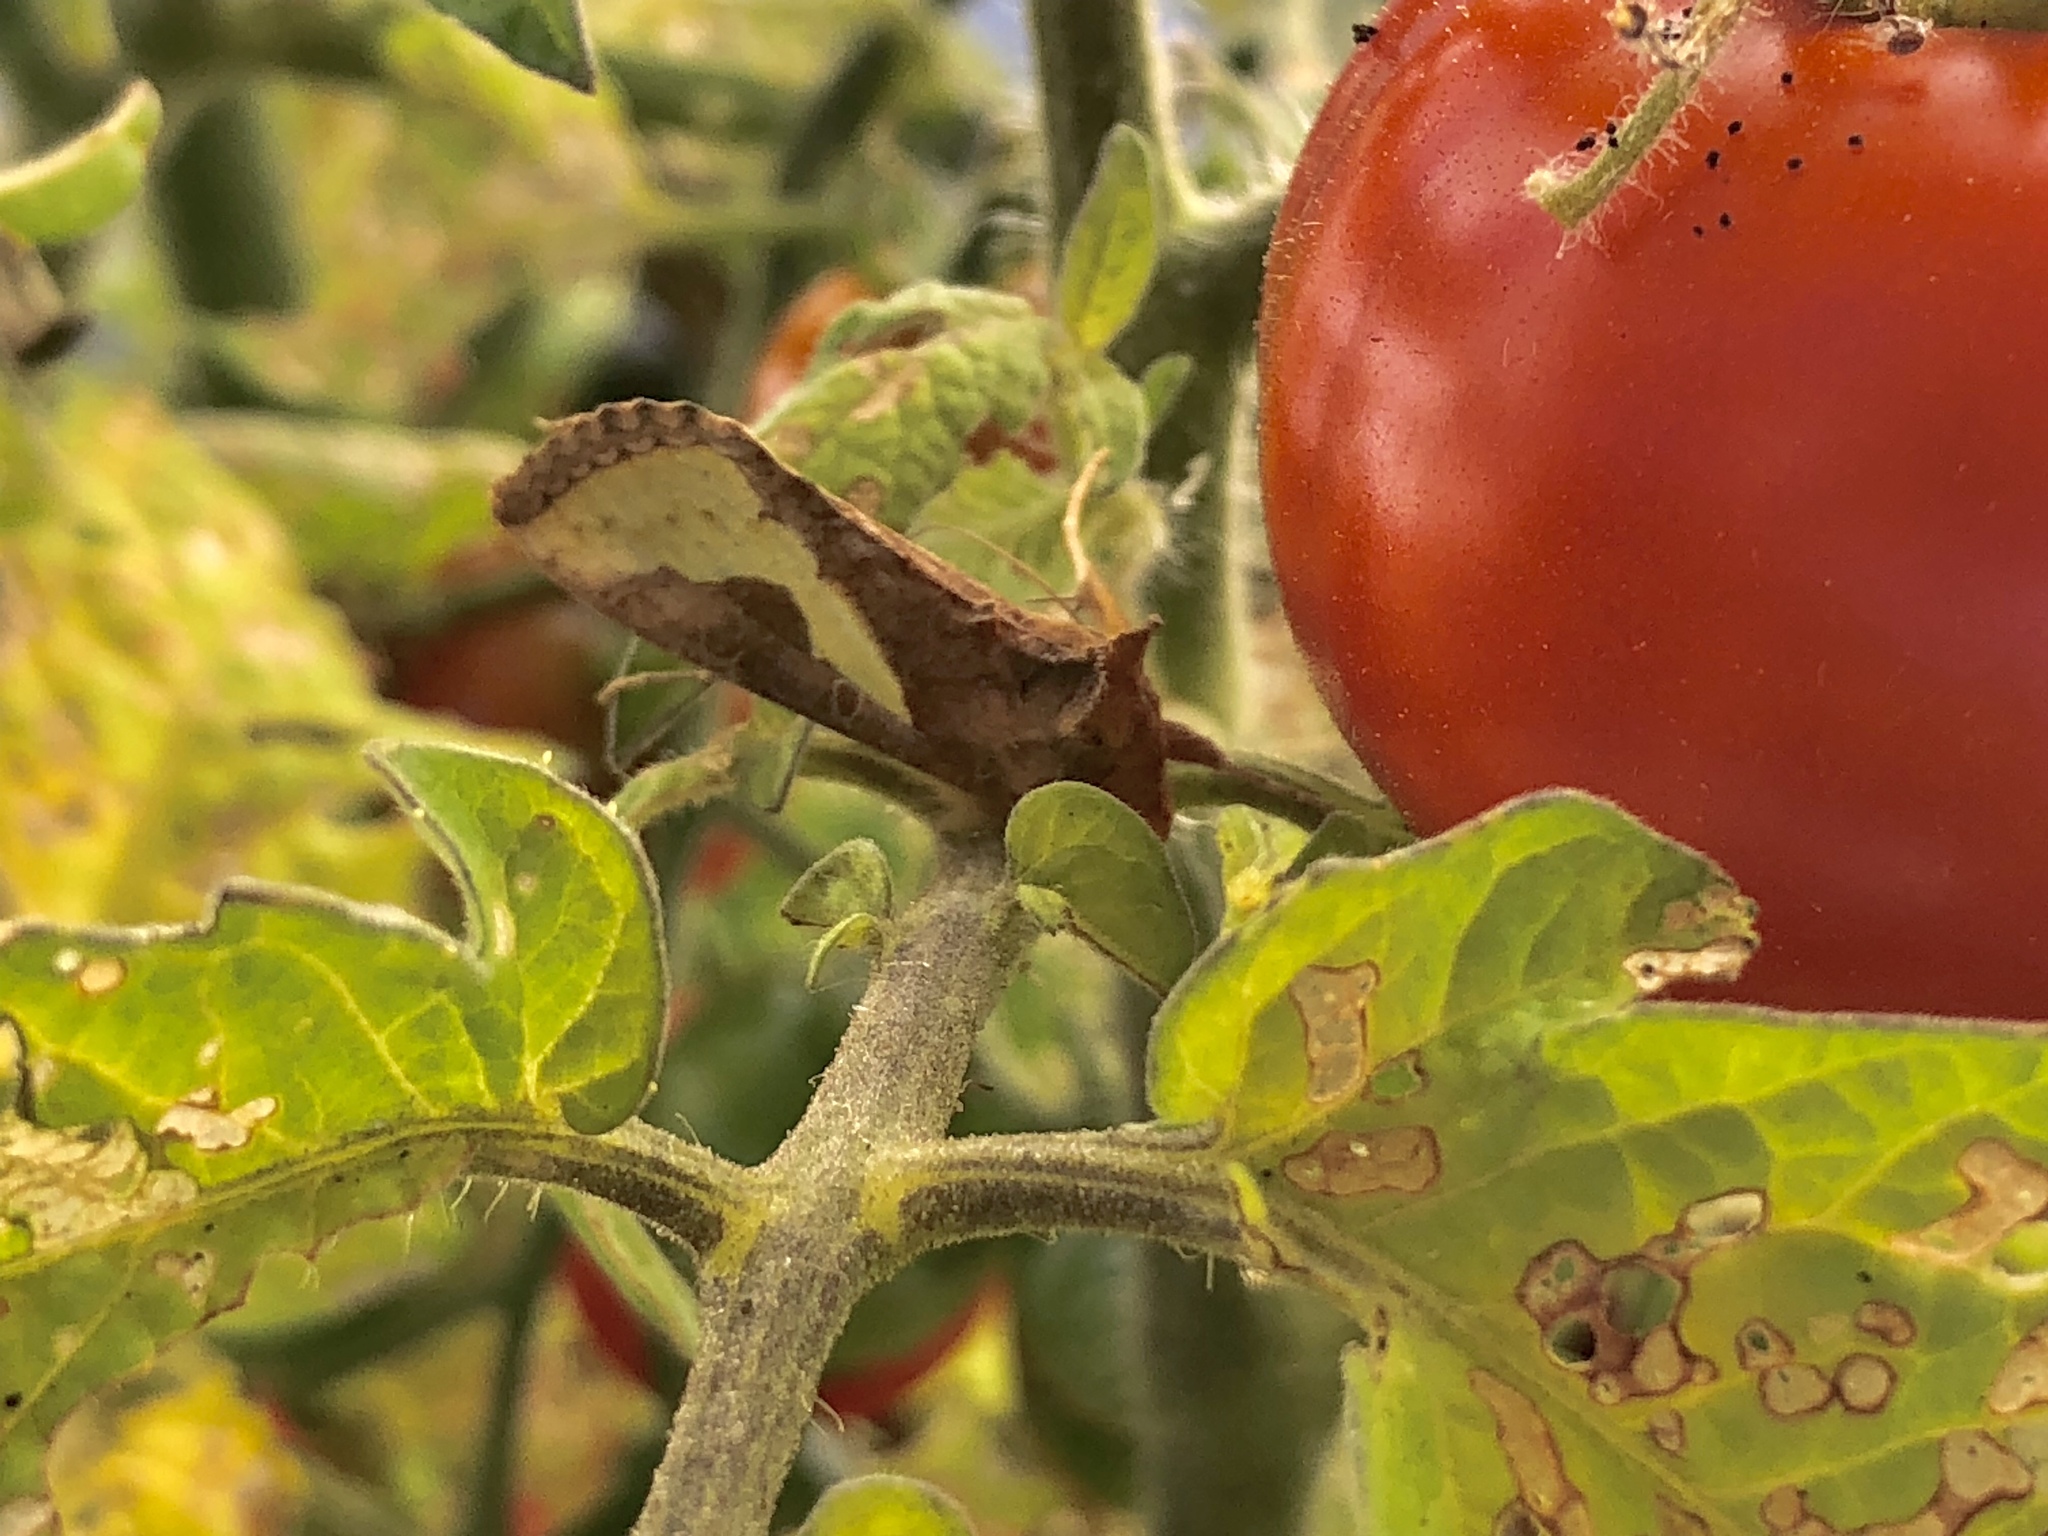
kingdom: Animalia
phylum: Arthropoda
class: Insecta
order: Lepidoptera
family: Noctuidae
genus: Thysanoplusia
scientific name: Thysanoplusia orichalcea
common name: Slender burnished brass, golden plusia
